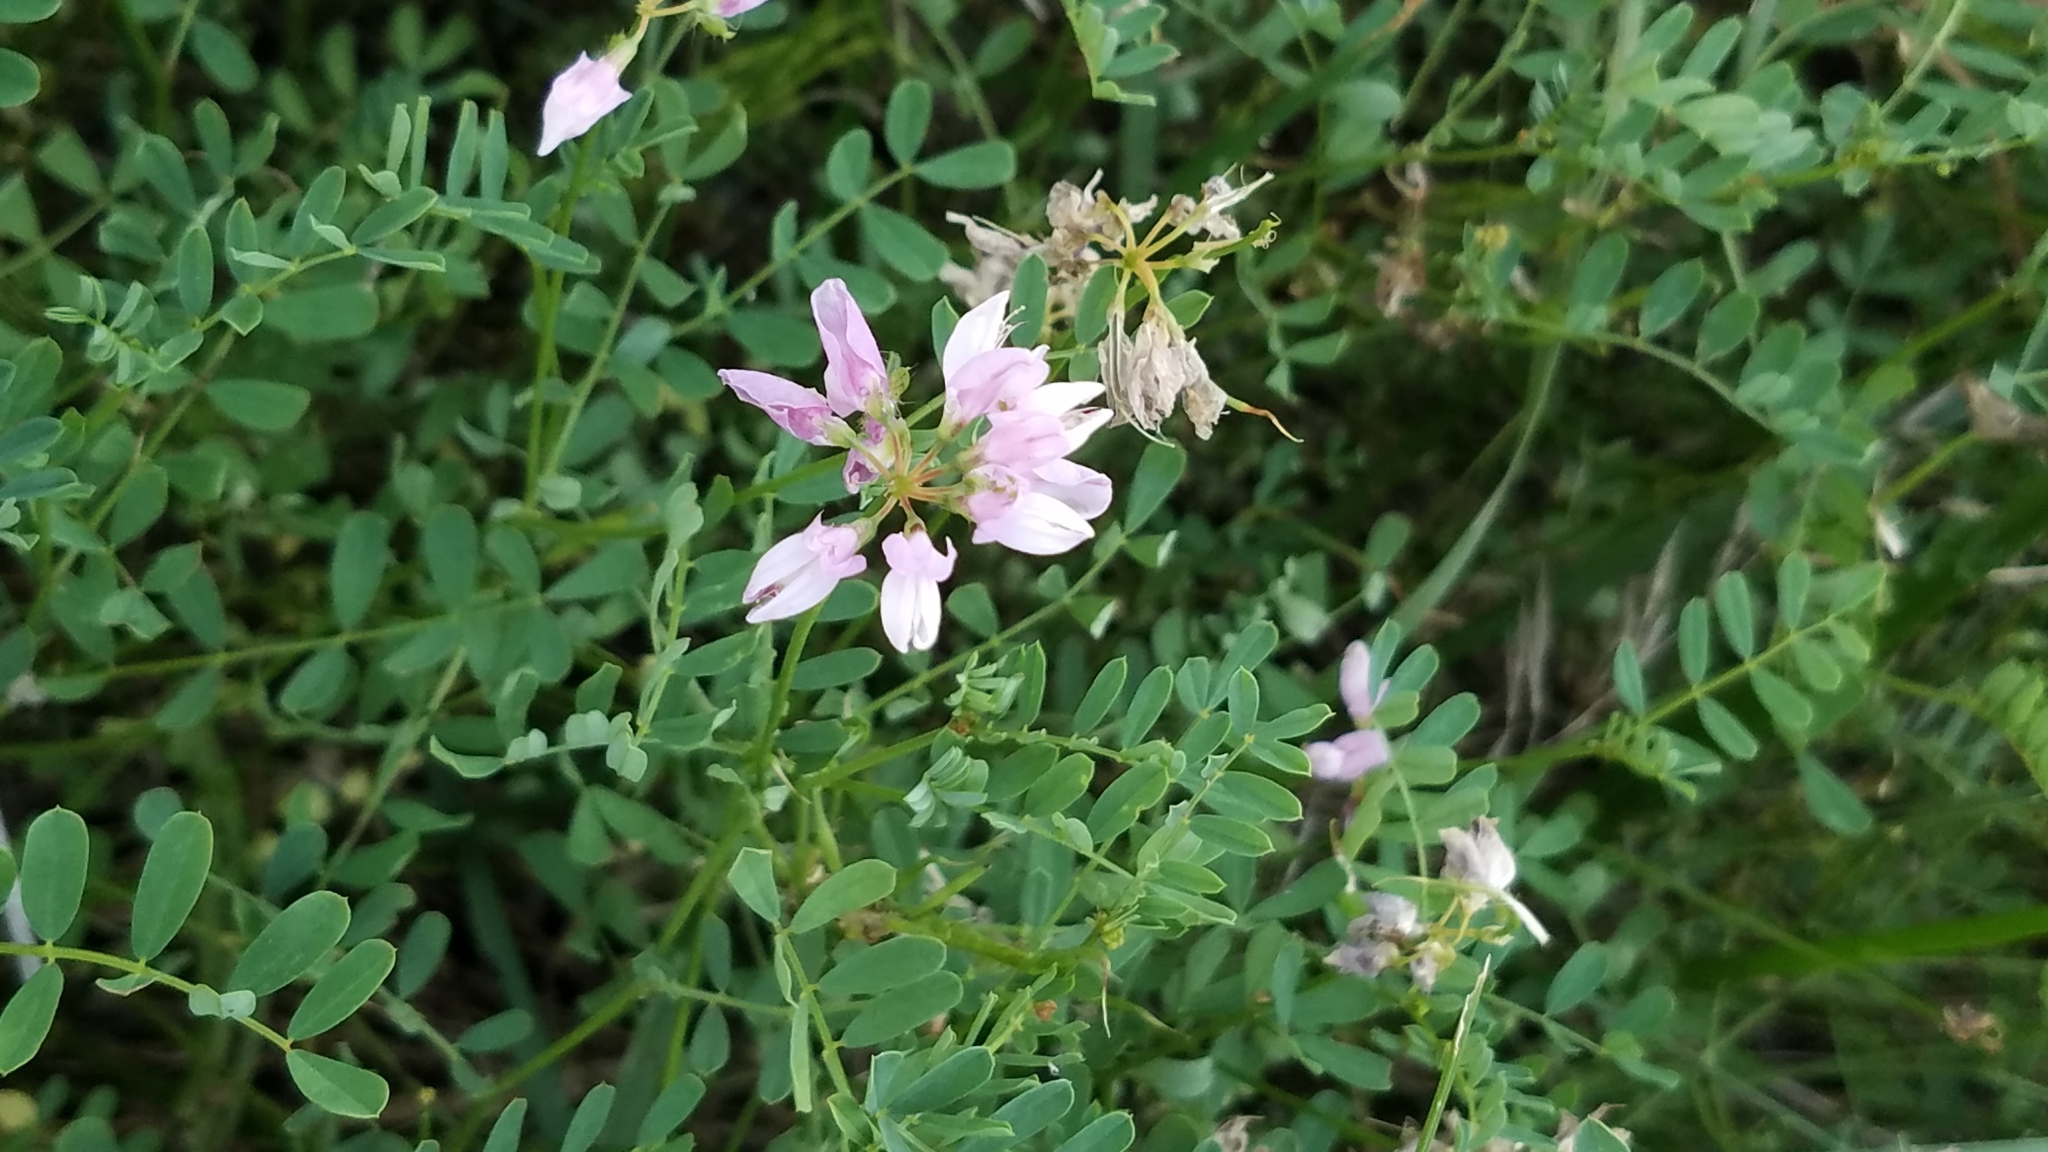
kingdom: Plantae
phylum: Tracheophyta
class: Magnoliopsida
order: Fabales
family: Fabaceae
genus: Coronilla
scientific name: Coronilla varia
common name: Crownvetch
